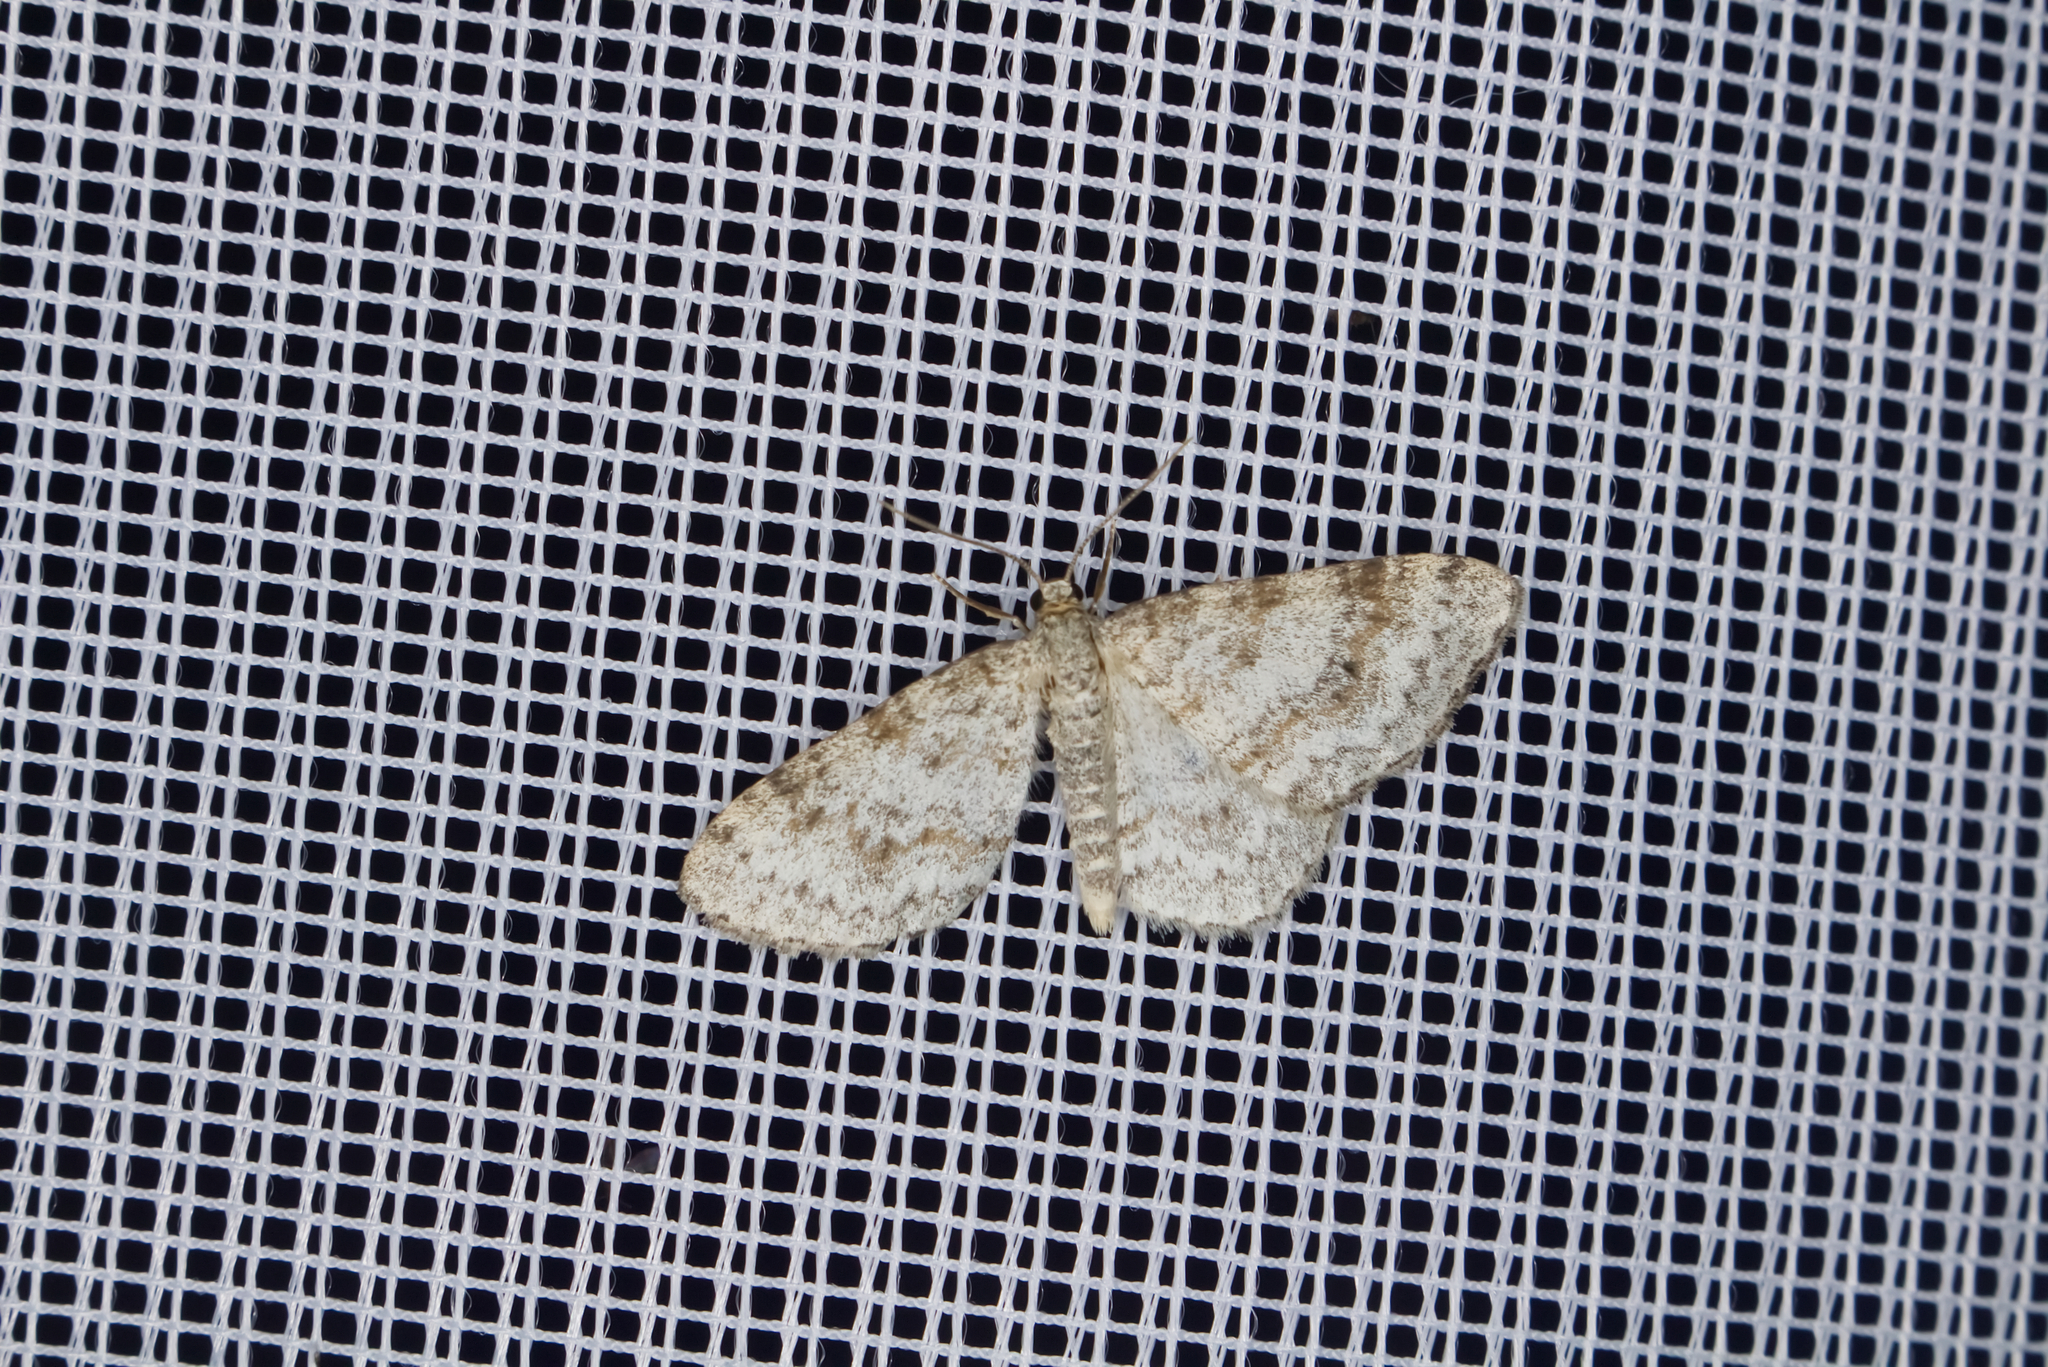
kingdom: Animalia
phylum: Arthropoda
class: Insecta
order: Lepidoptera
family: Geometridae
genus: Hydrelia
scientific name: Hydrelia sylvata
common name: Waved carpet
